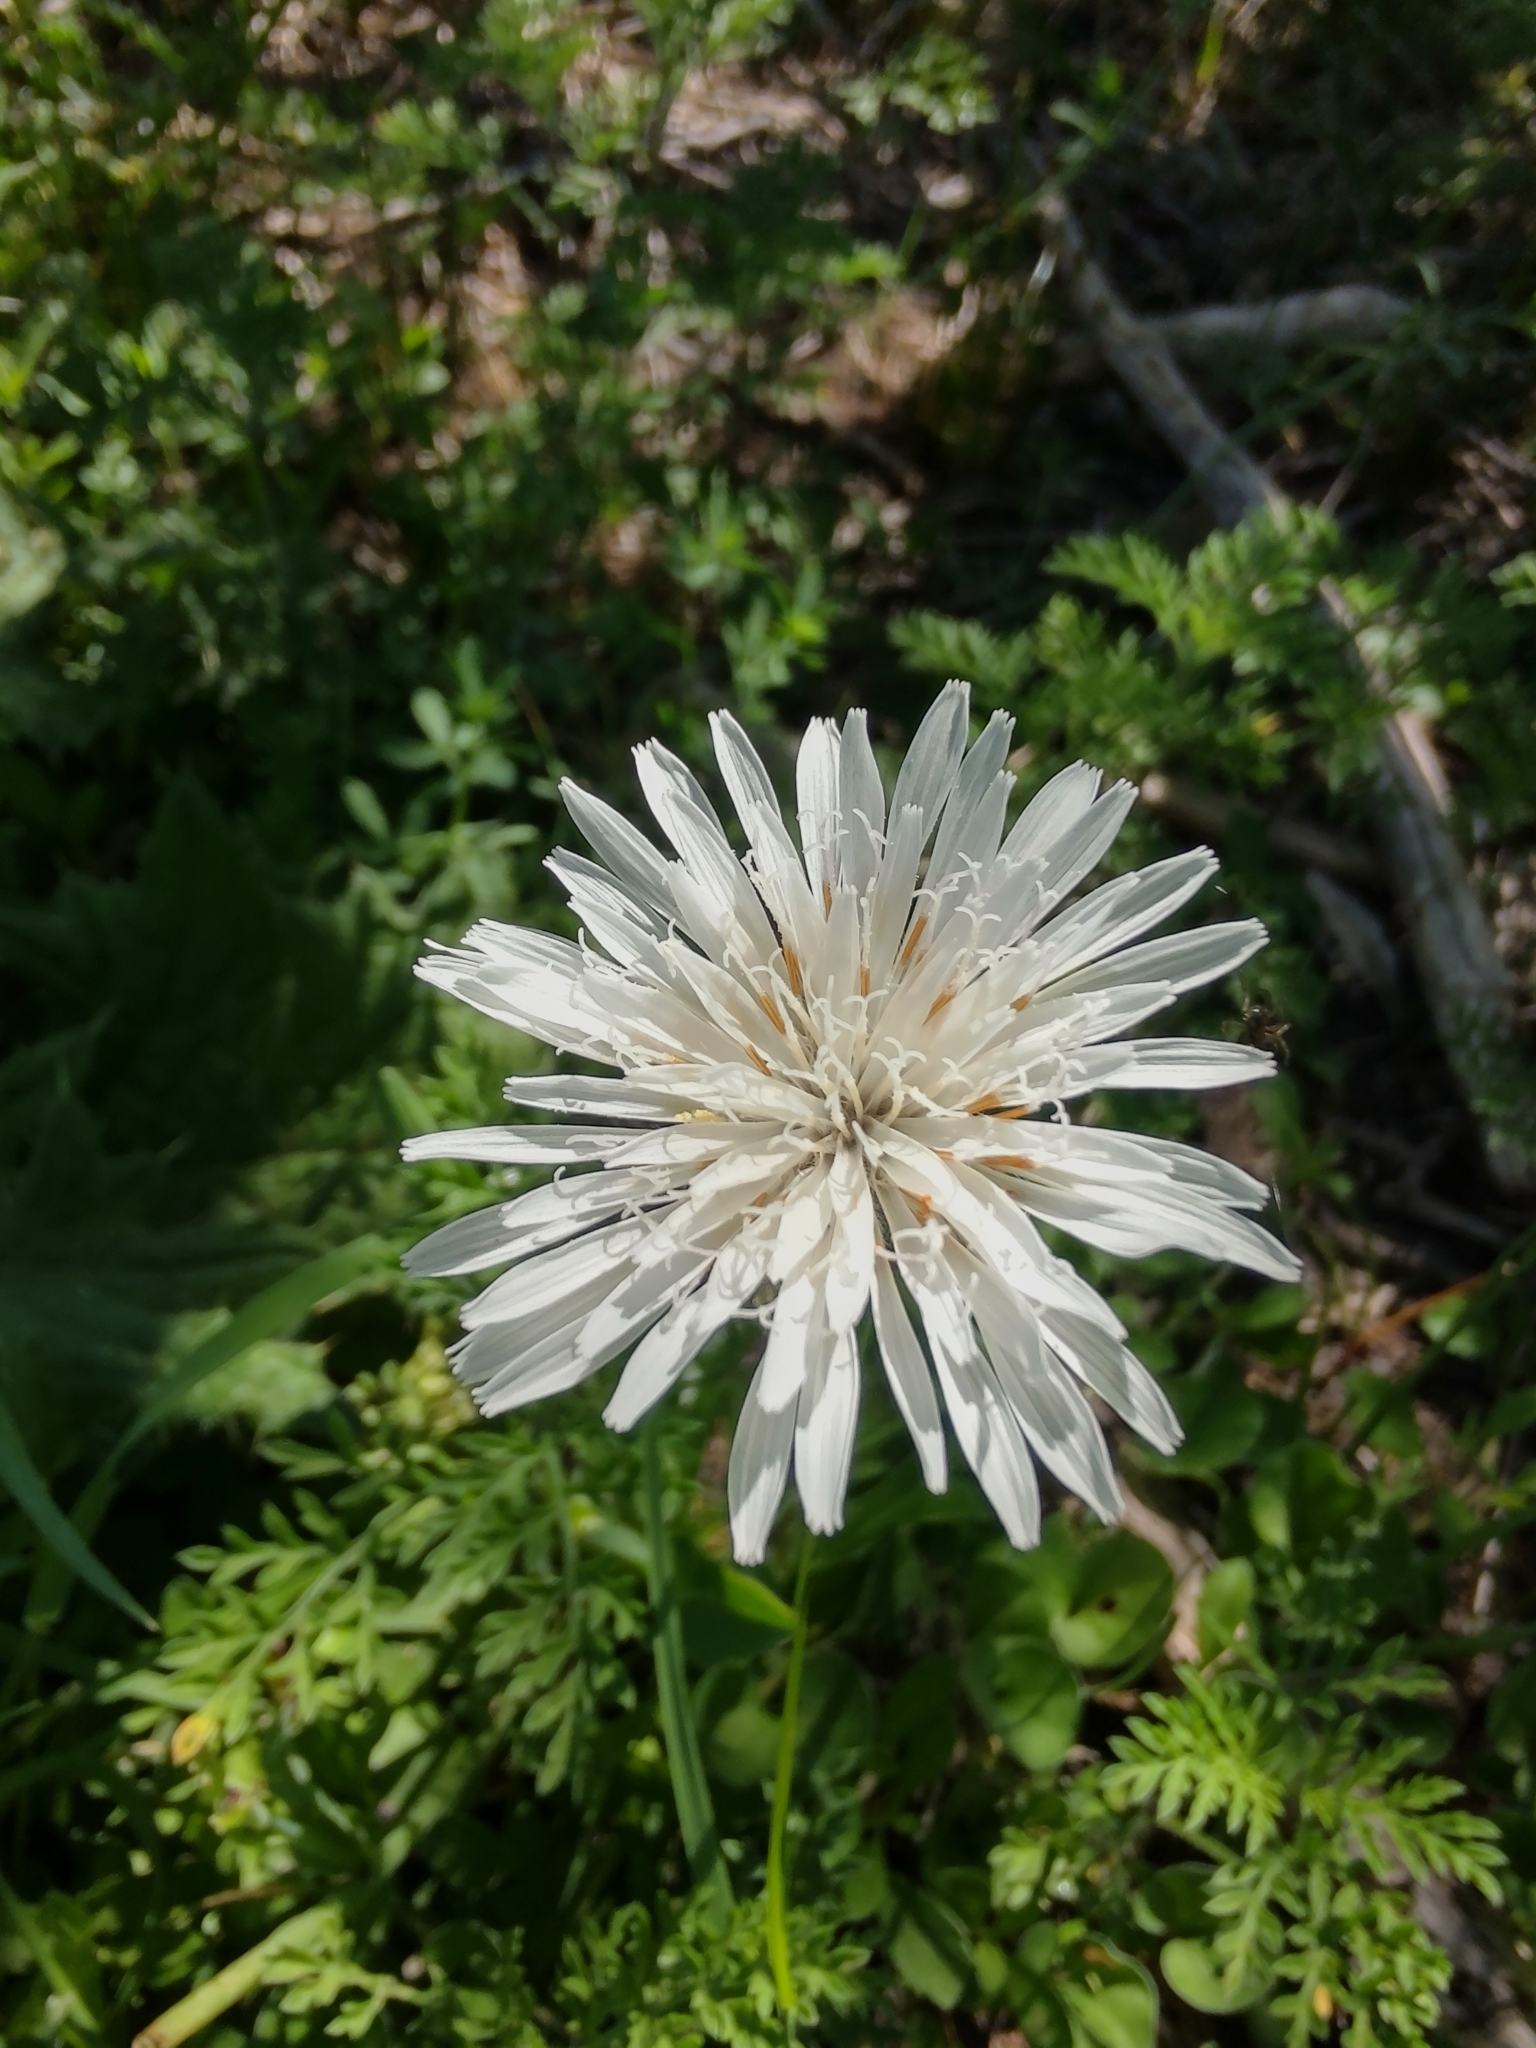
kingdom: Plantae
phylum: Tracheophyta
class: Magnoliopsida
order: Asterales
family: Asteraceae
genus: Picrosia
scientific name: Picrosia longifolia
